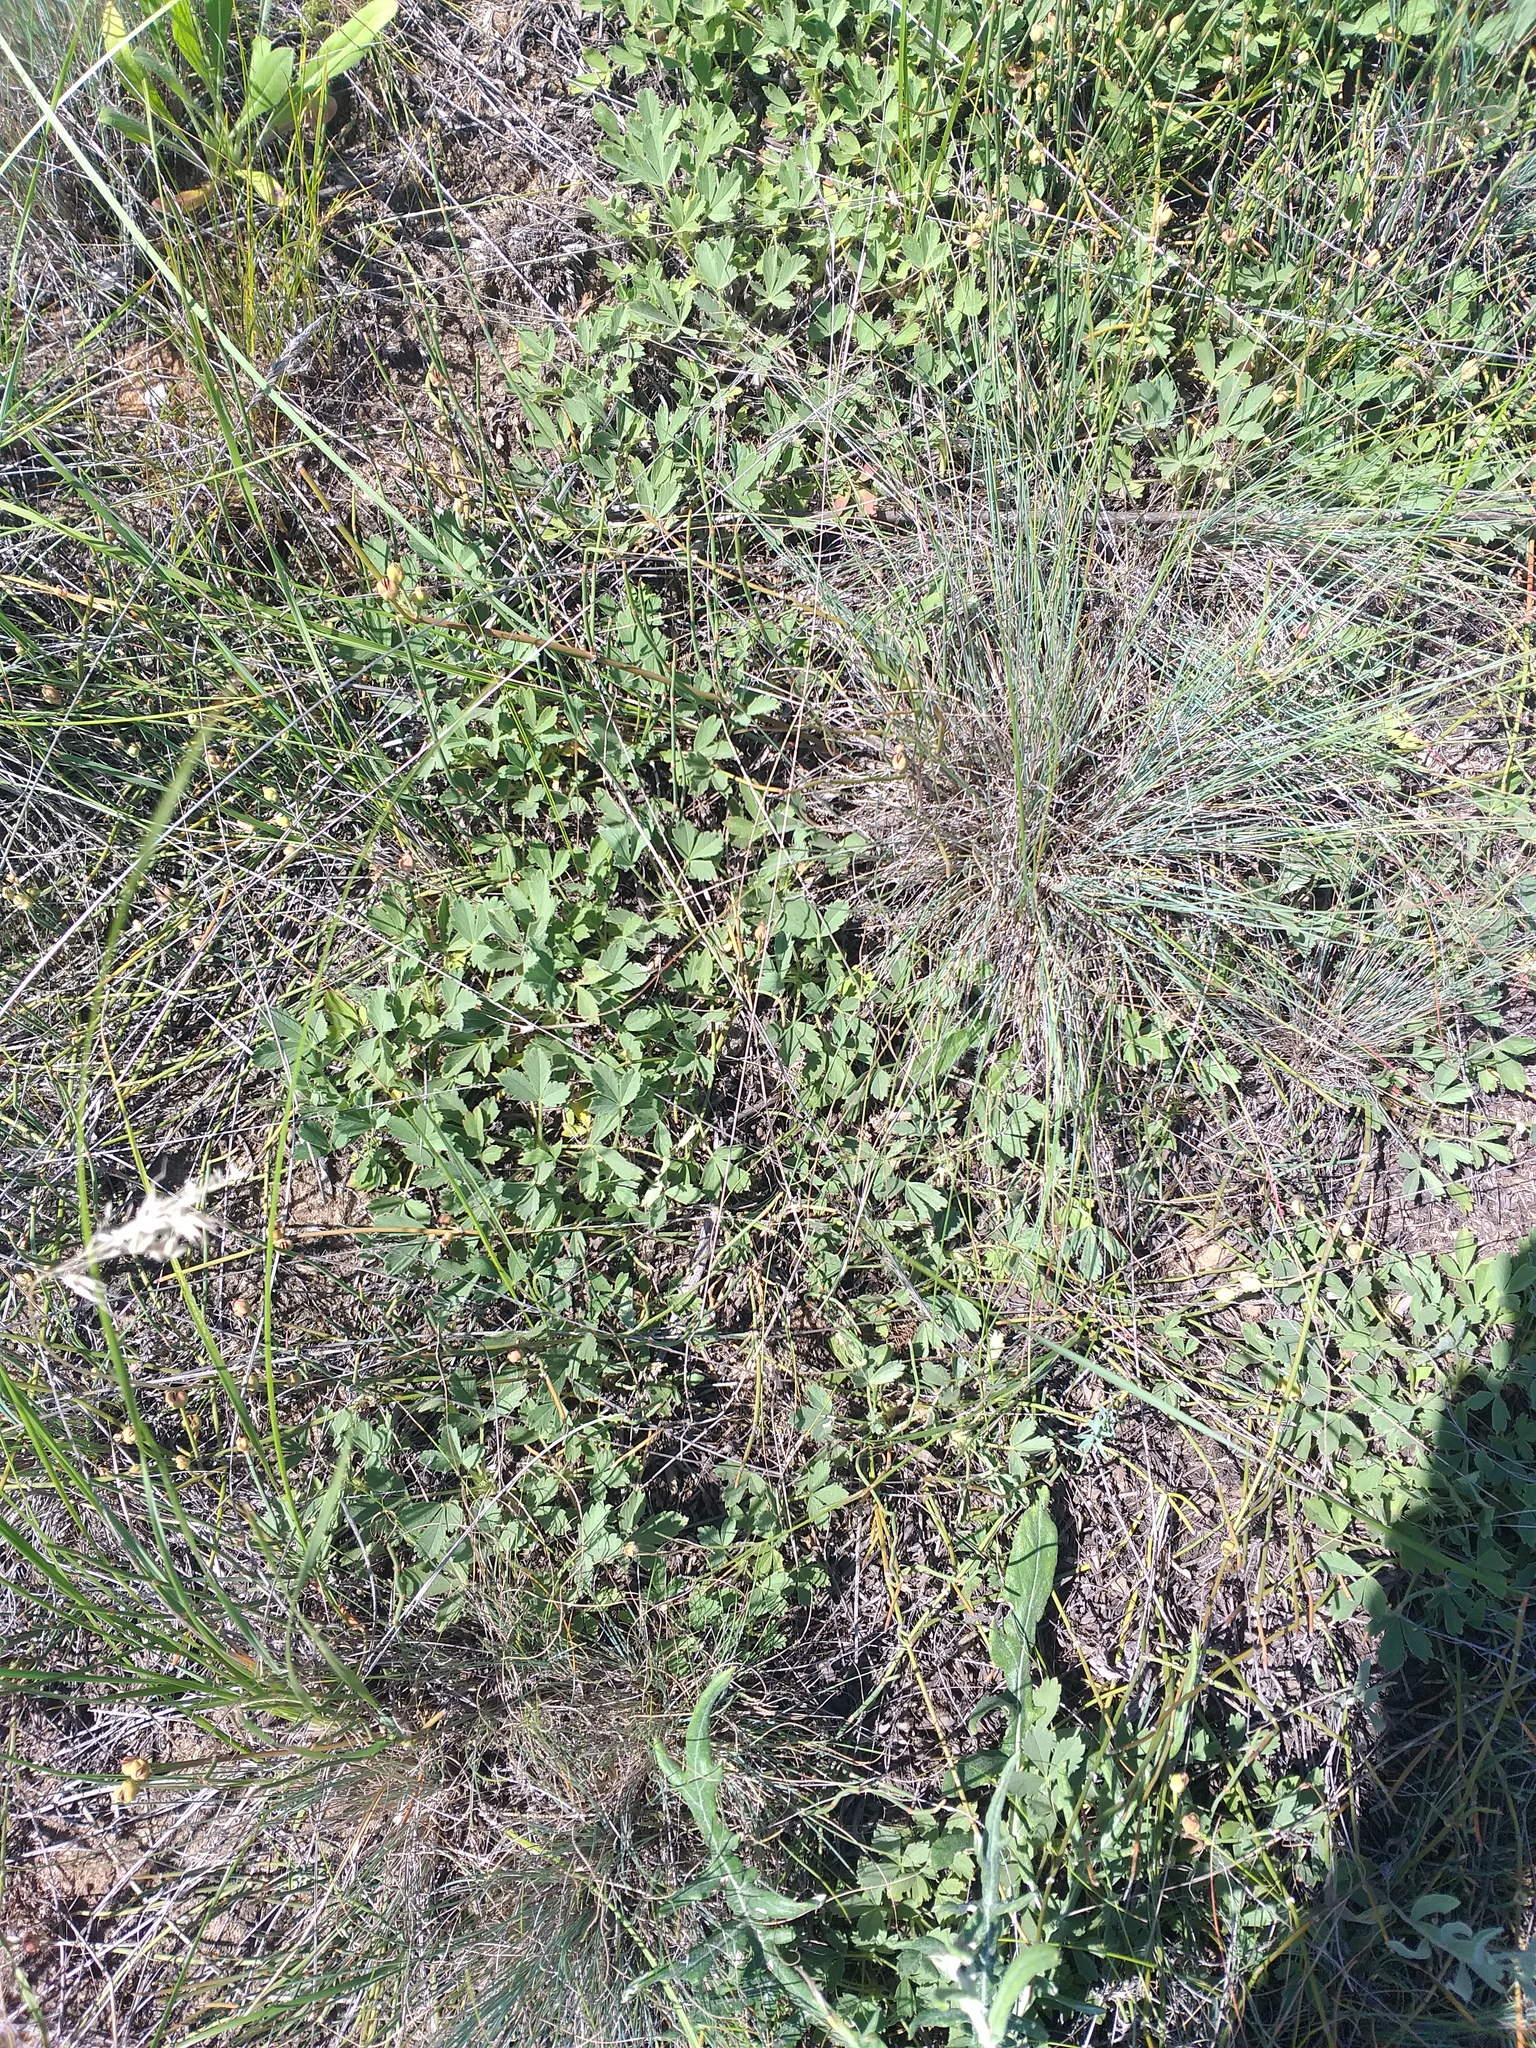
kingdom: Plantae
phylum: Tracheophyta
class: Magnoliopsida
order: Rosales
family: Rosaceae
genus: Potentilla
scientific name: Potentilla incana
